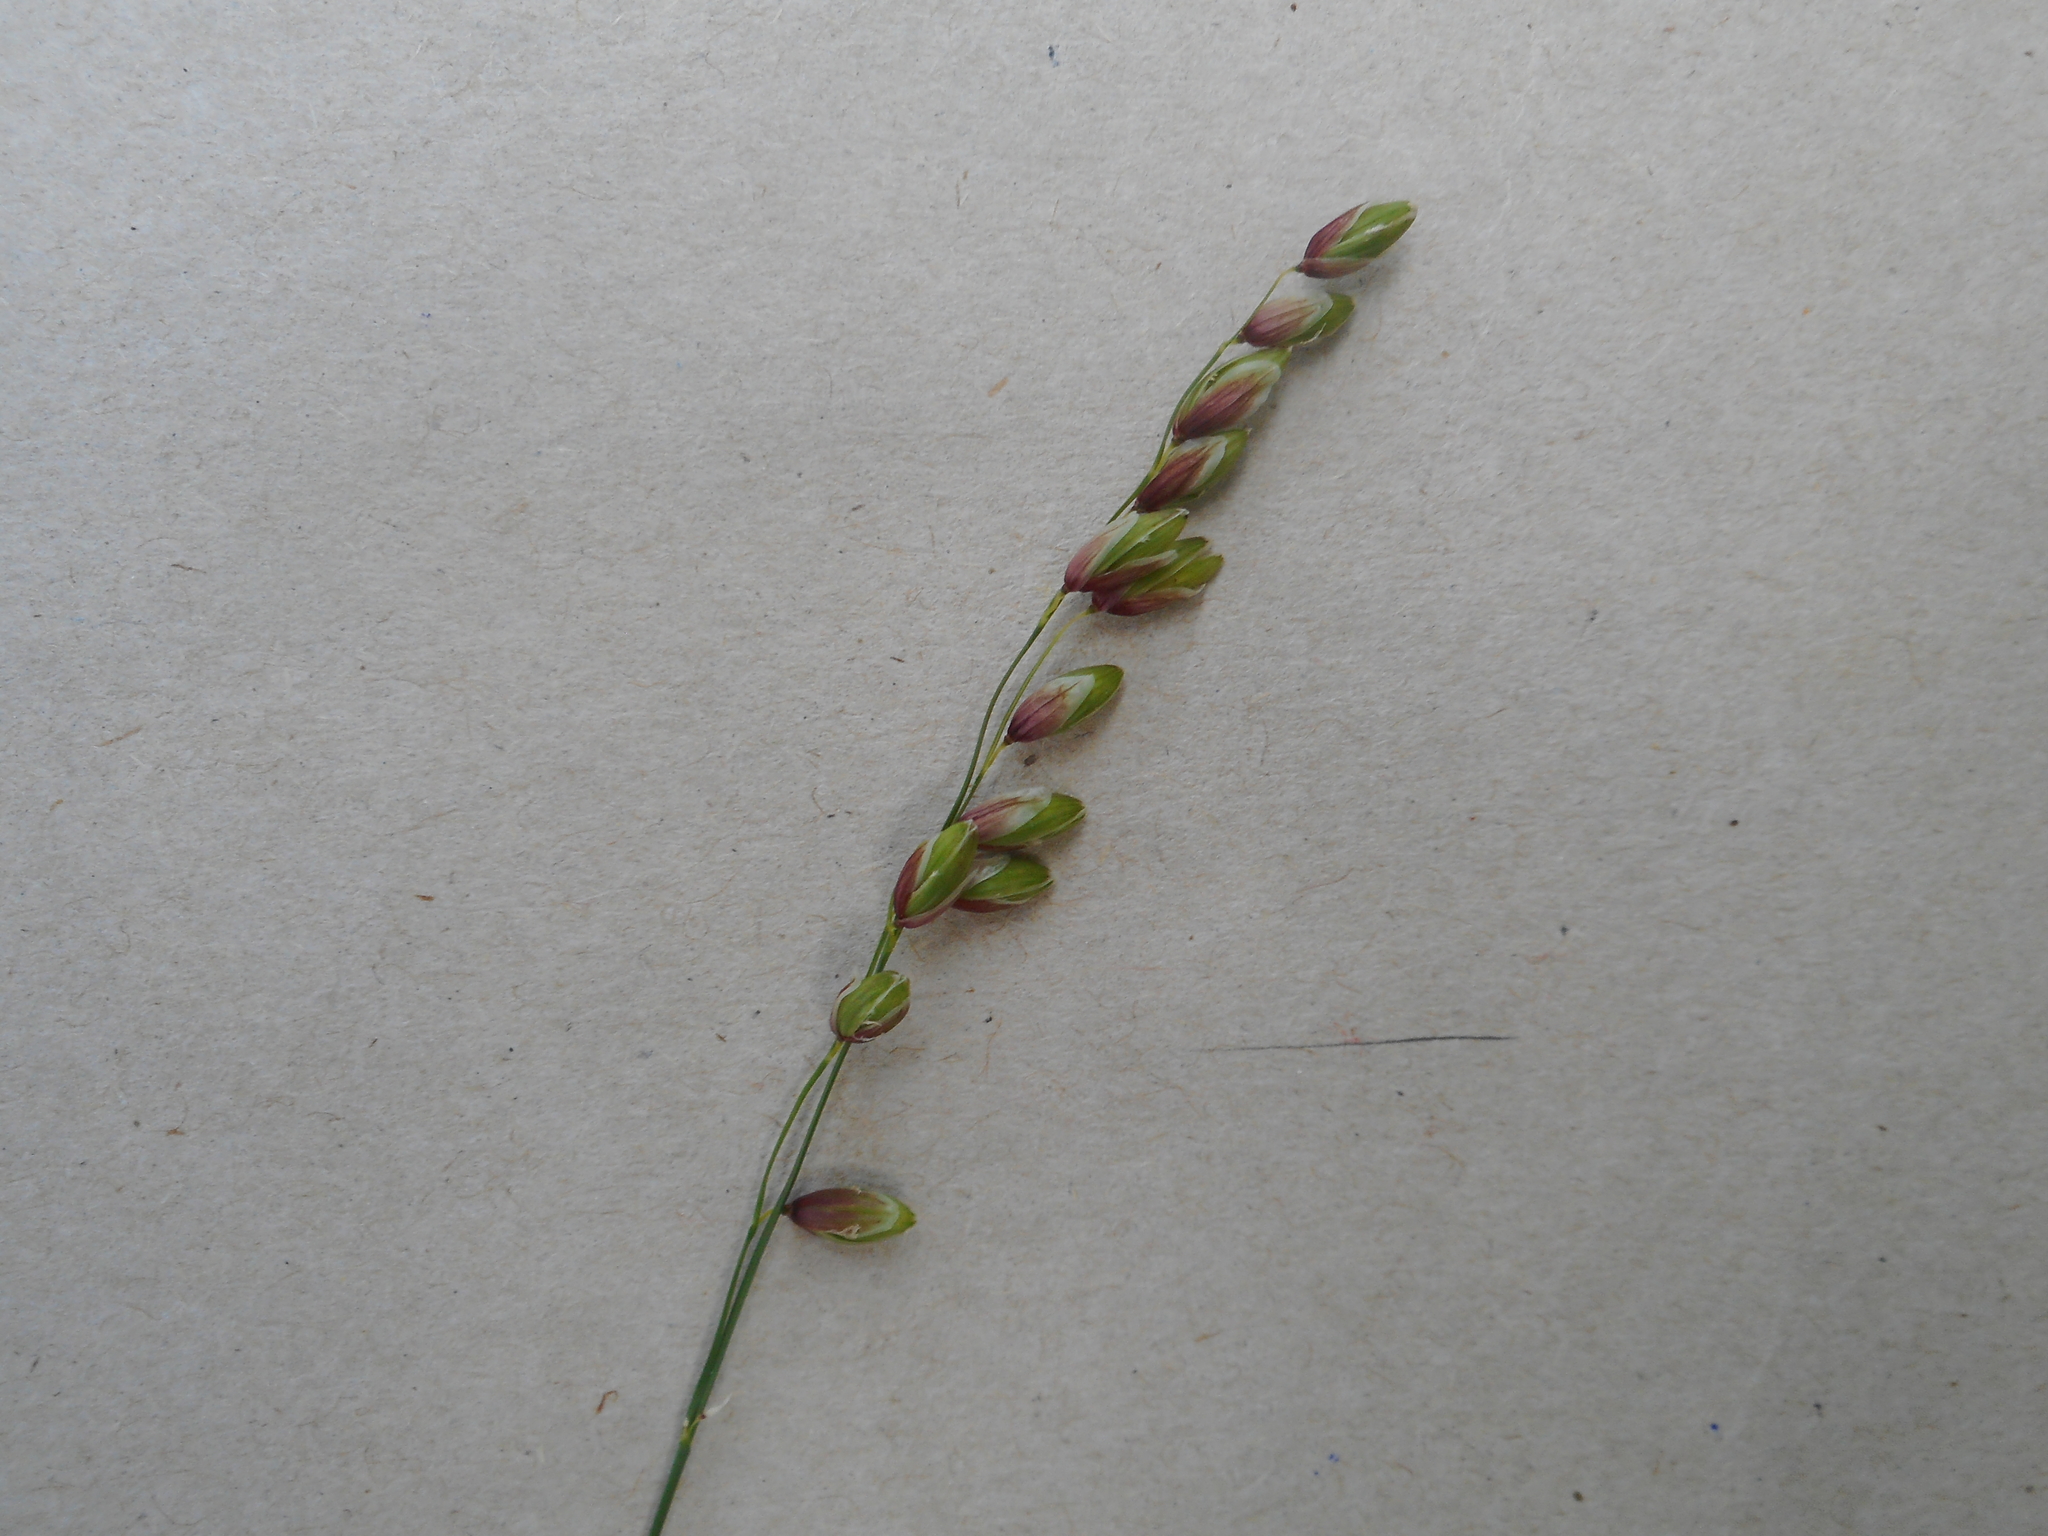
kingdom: Plantae
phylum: Tracheophyta
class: Liliopsida
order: Poales
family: Poaceae
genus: Melica
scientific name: Melica nutans
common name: Mountain melick
